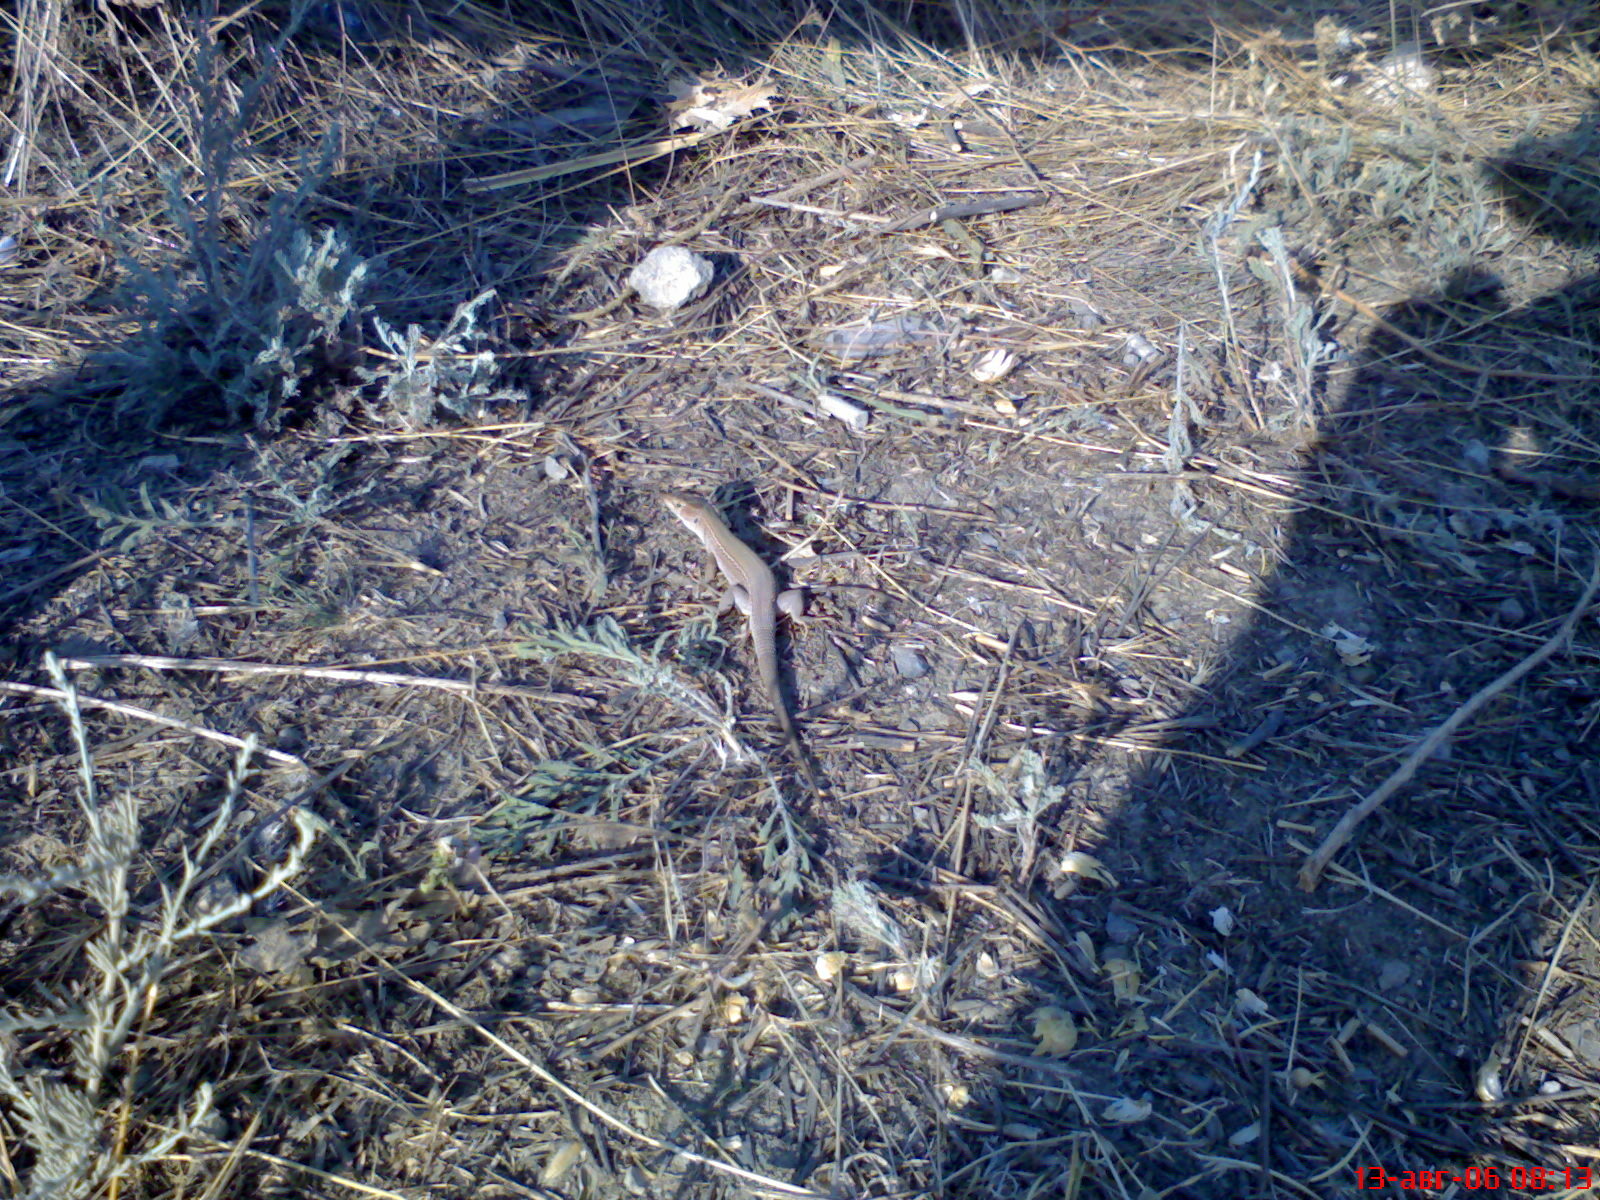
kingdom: Animalia
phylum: Chordata
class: Squamata
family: Lacertidae
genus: Podarcis
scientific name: Podarcis tauricus
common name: Balkan wall lizard
